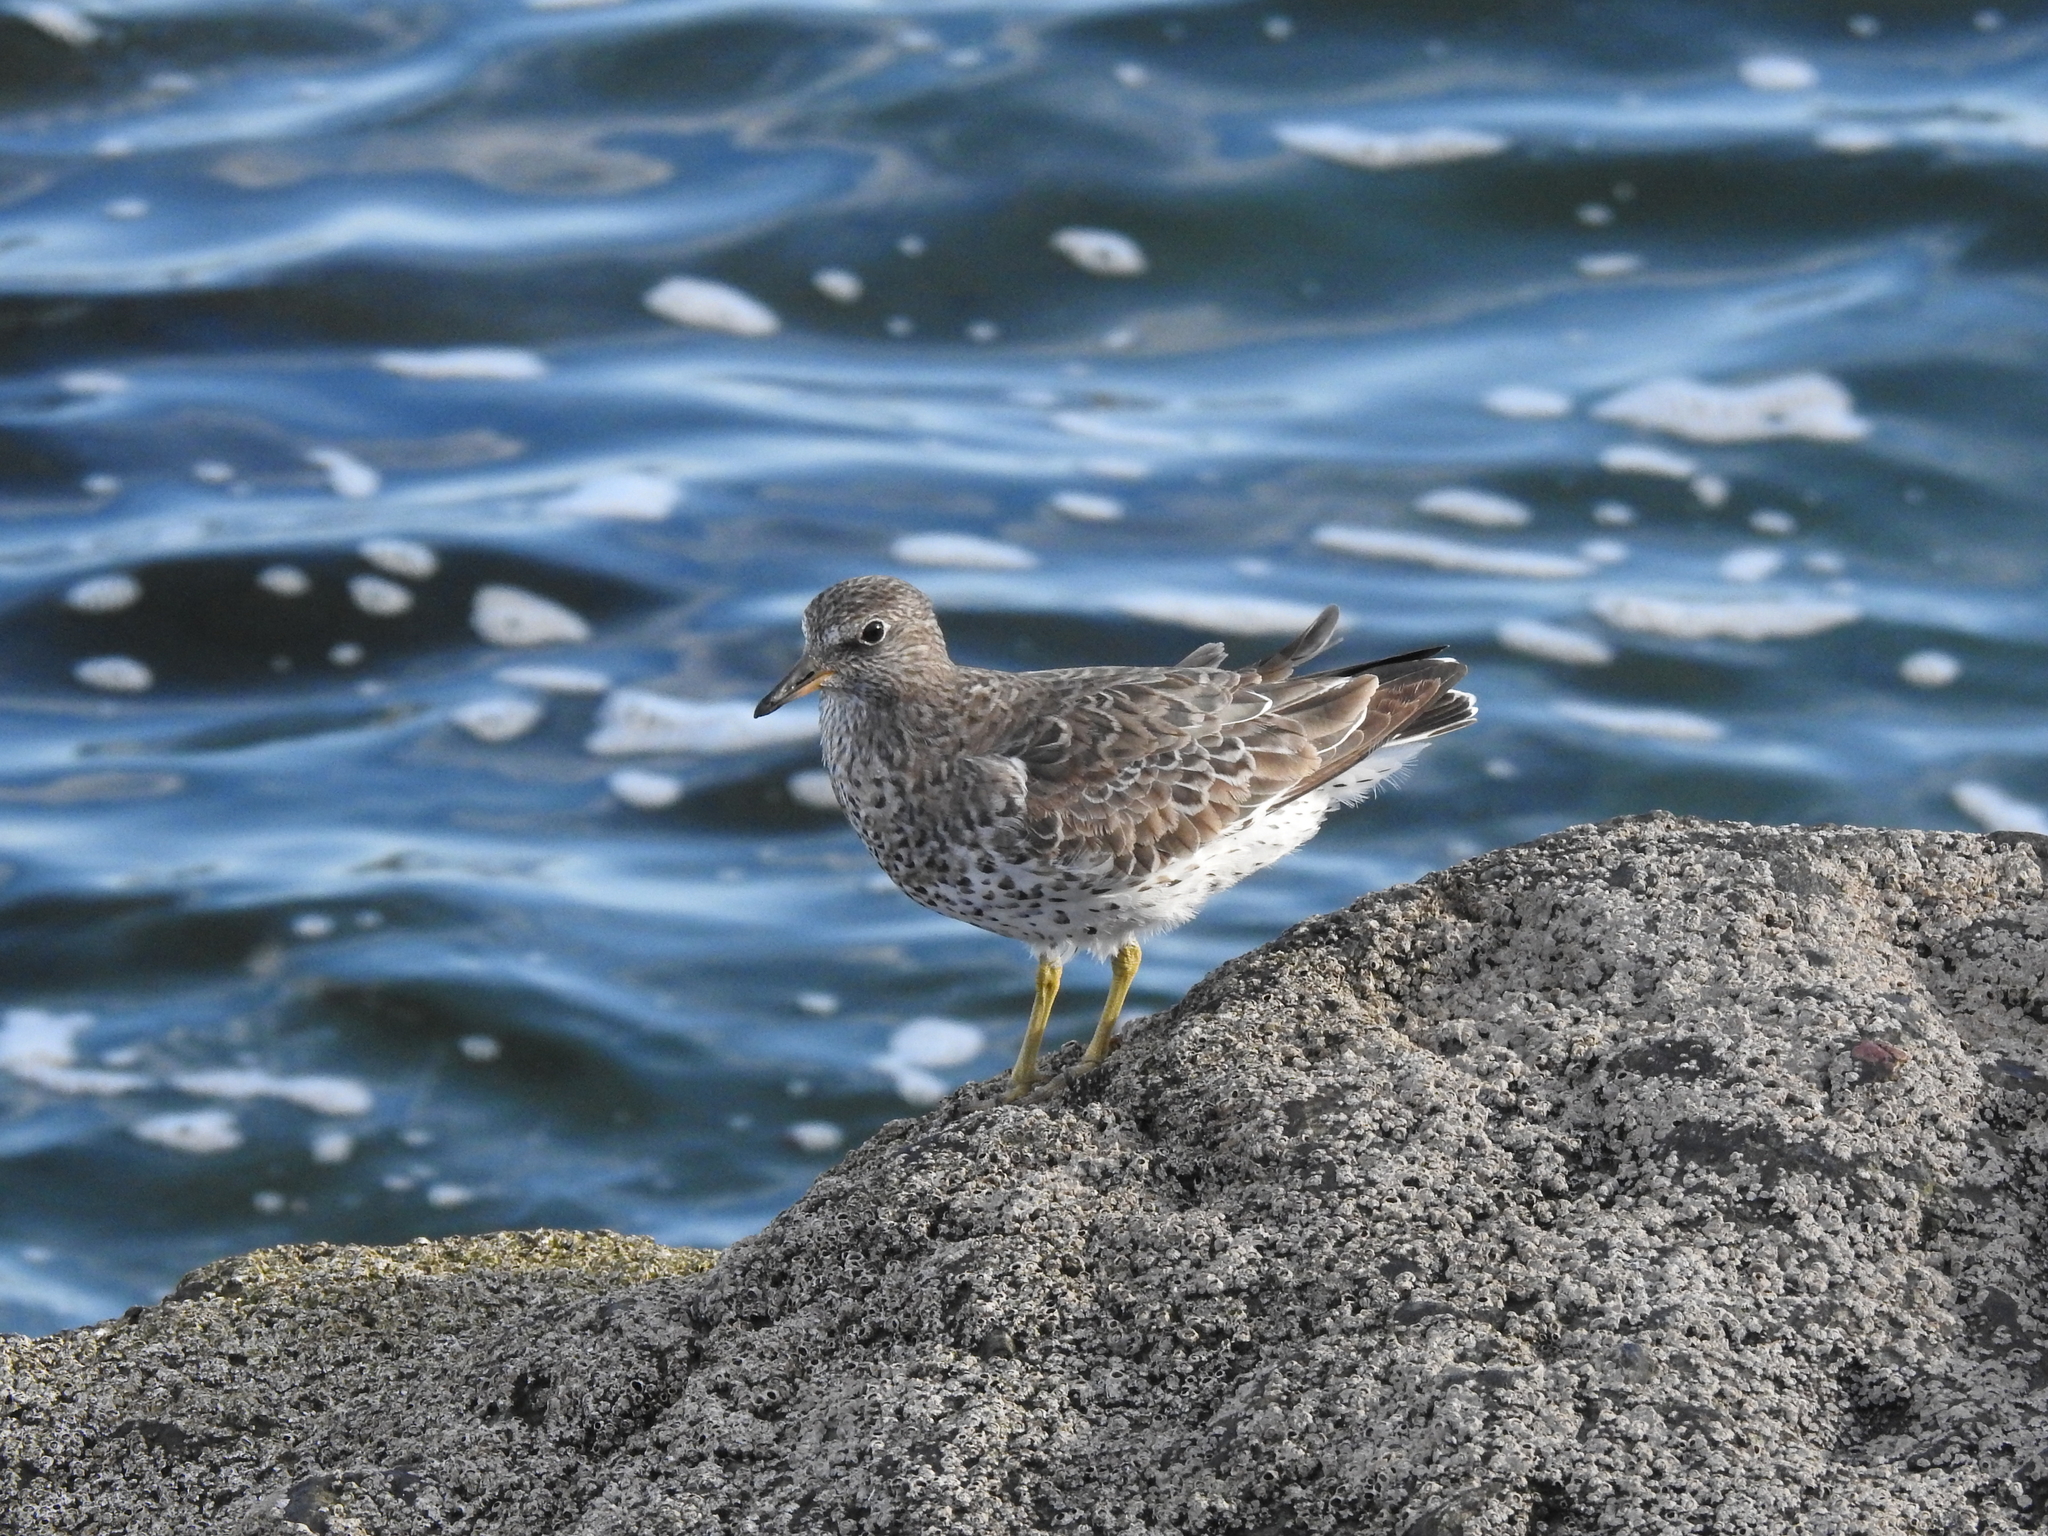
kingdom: Animalia
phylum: Chordata
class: Aves
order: Charadriiformes
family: Scolopacidae
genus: Calidris
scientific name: Calidris virgata
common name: Surfbird
